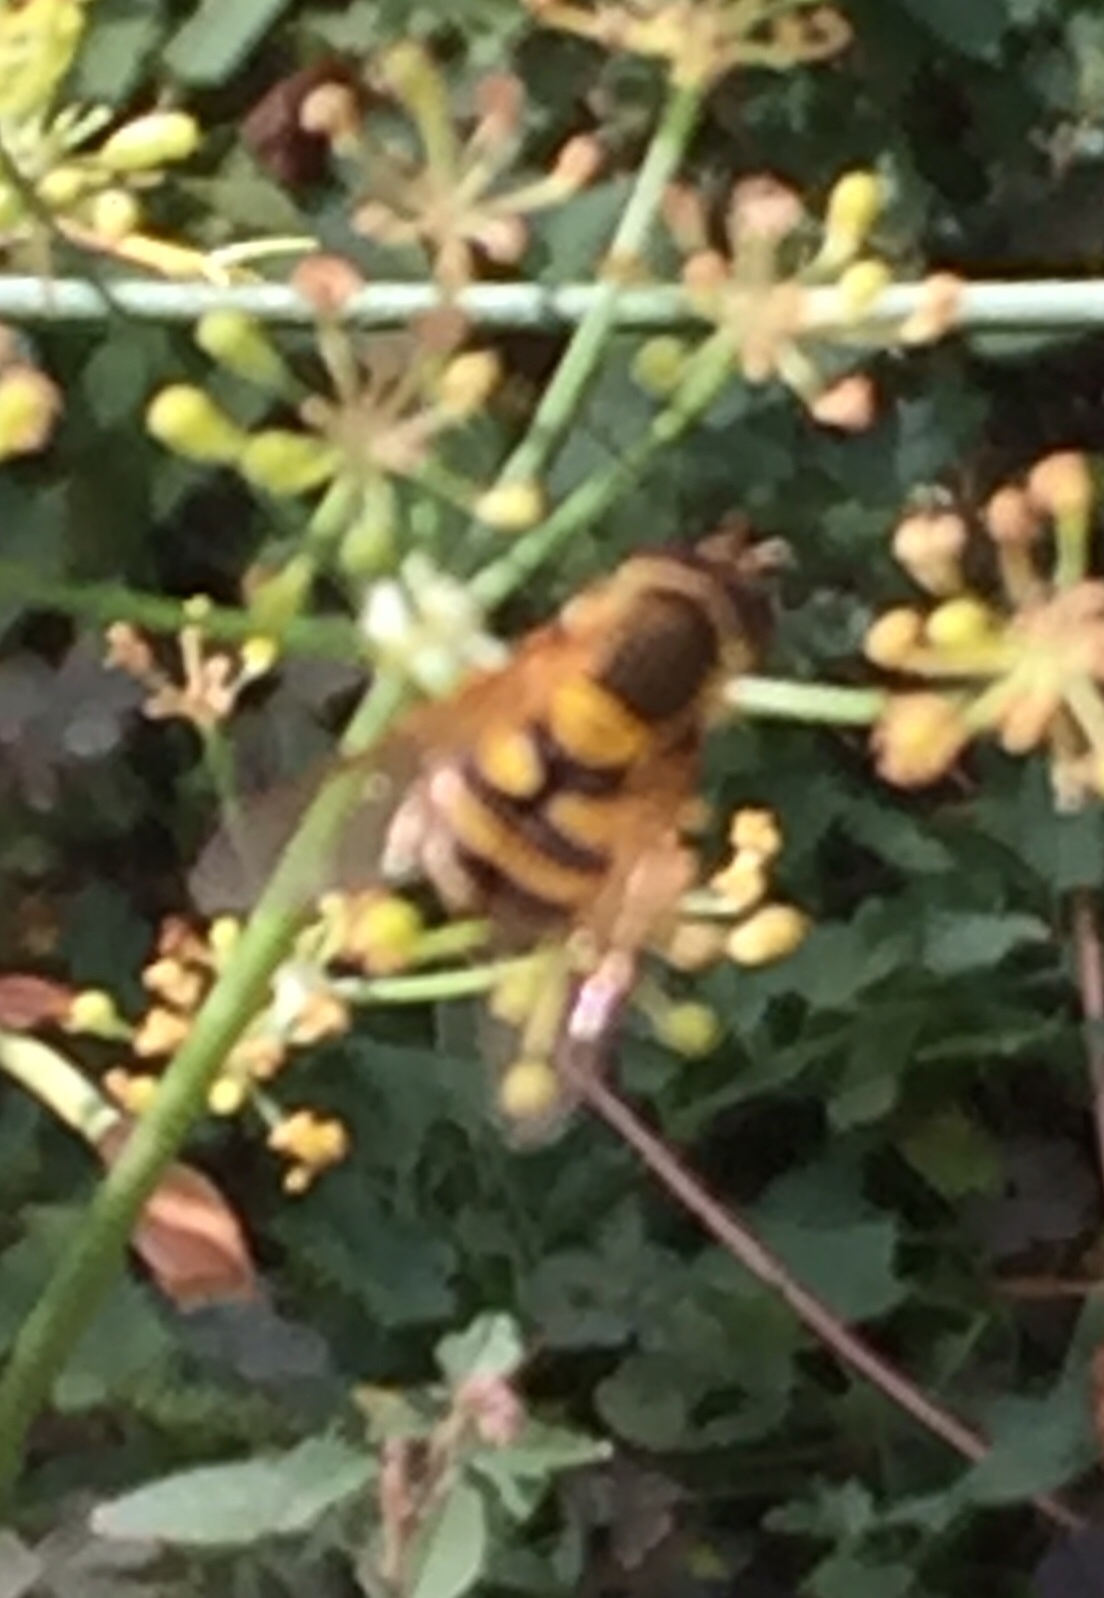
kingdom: Animalia
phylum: Arthropoda
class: Insecta
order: Diptera
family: Syrphidae
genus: Syrphus
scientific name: Syrphus
